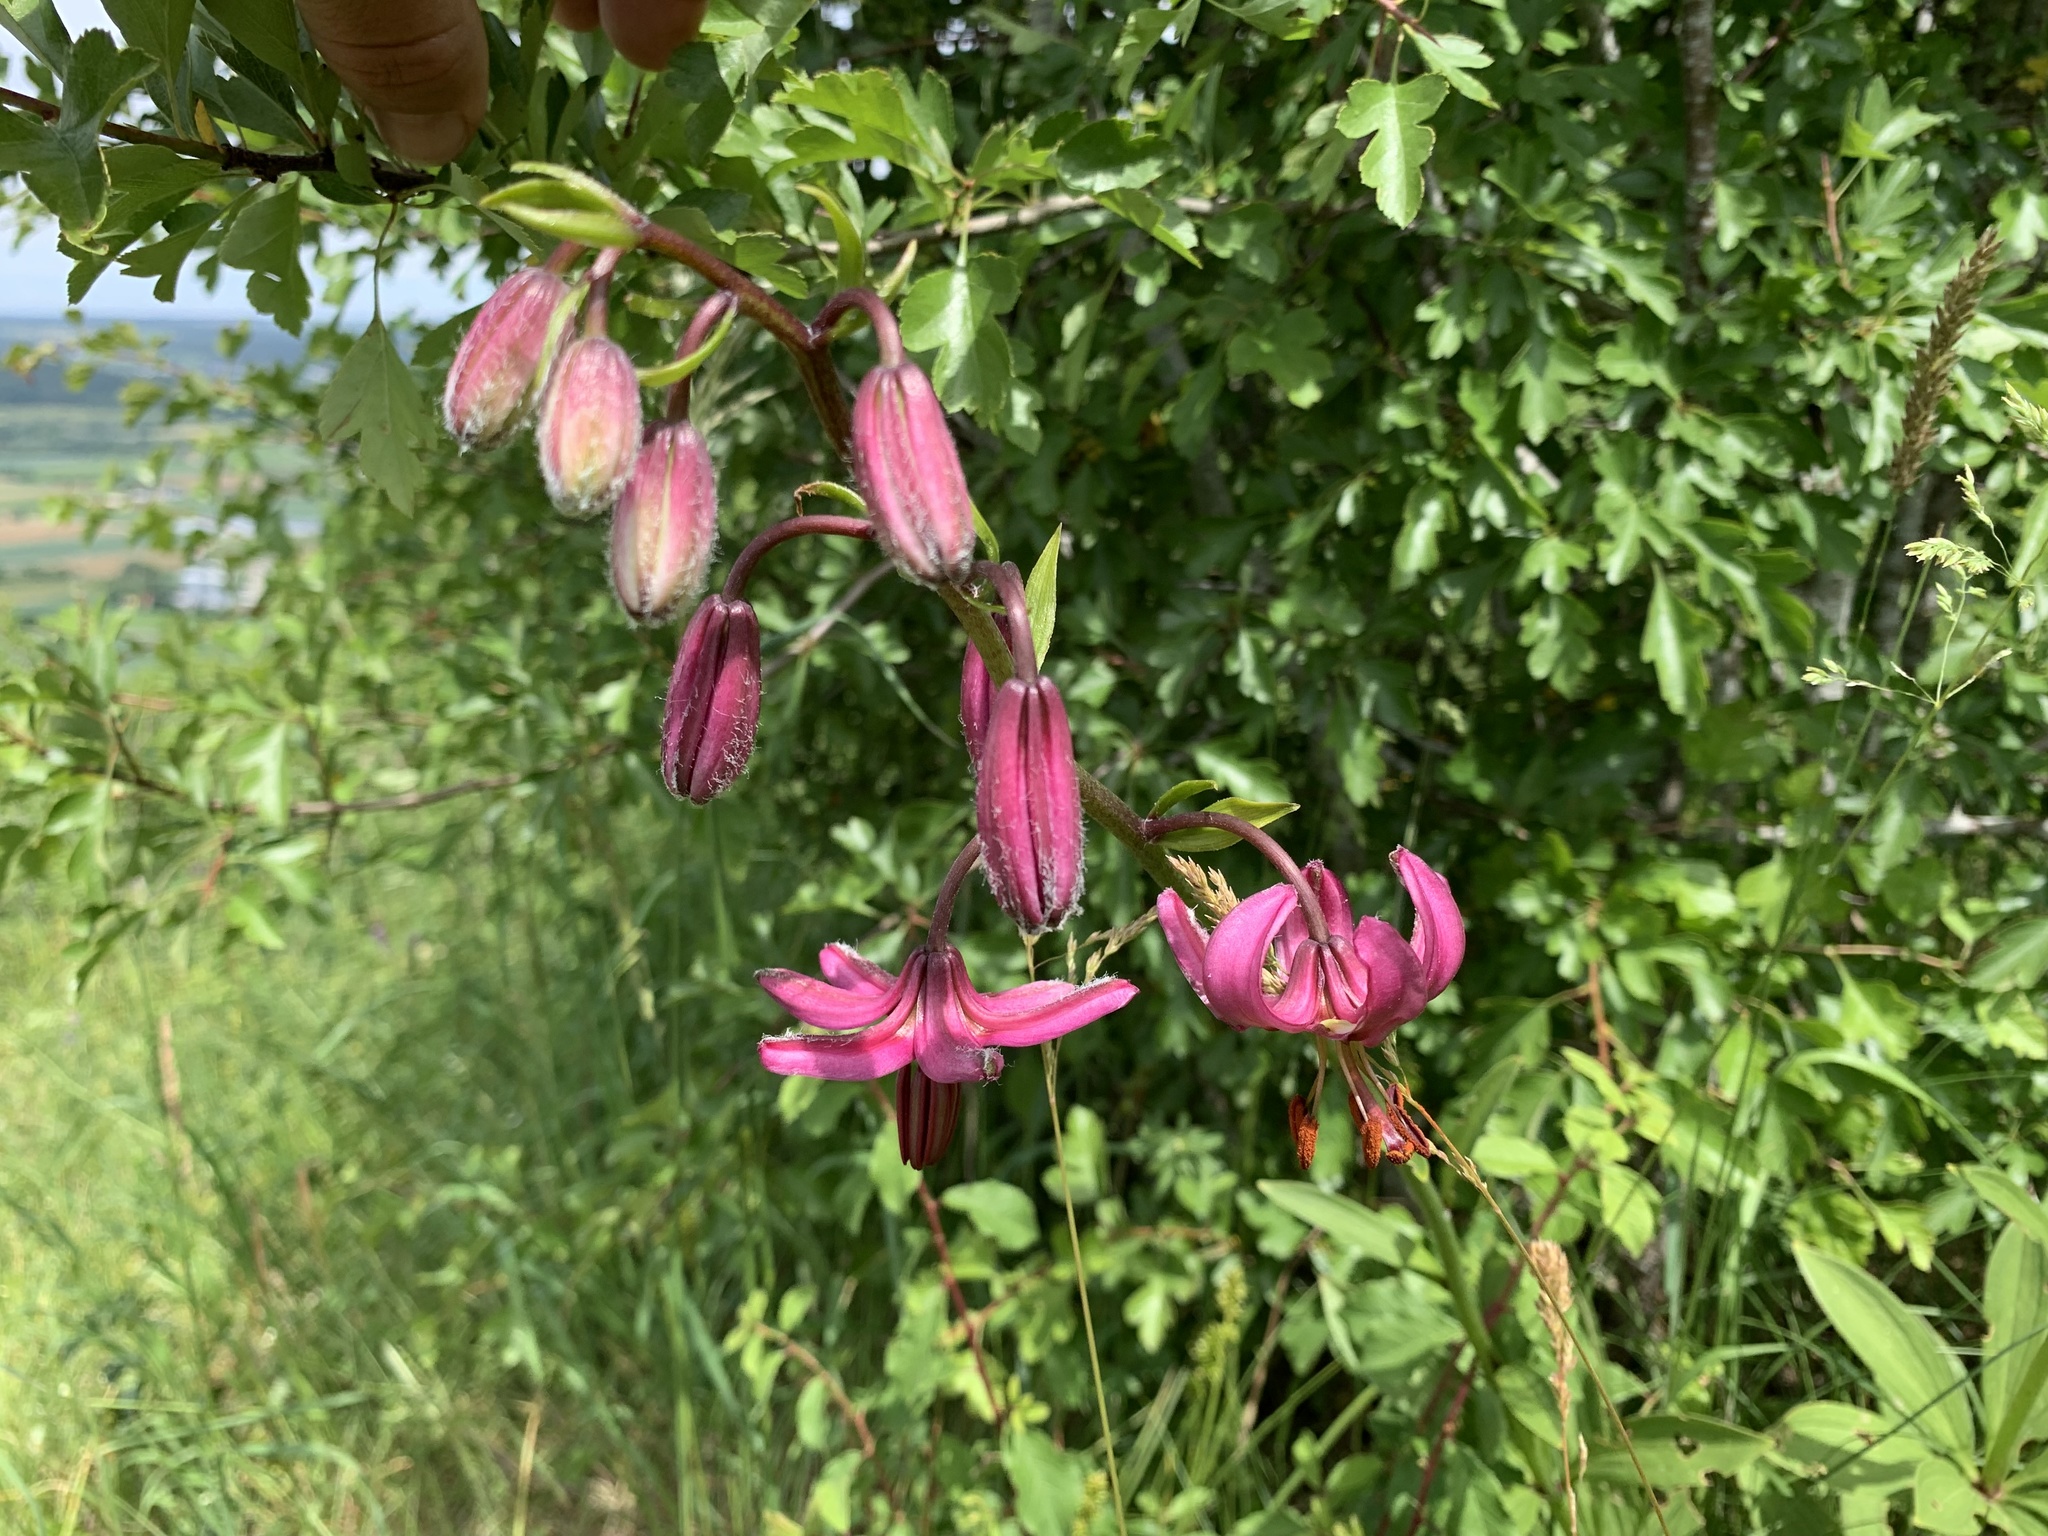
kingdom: Plantae
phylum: Tracheophyta
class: Liliopsida
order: Liliales
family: Liliaceae
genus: Lilium
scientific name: Lilium martagon
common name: Martagon lily
